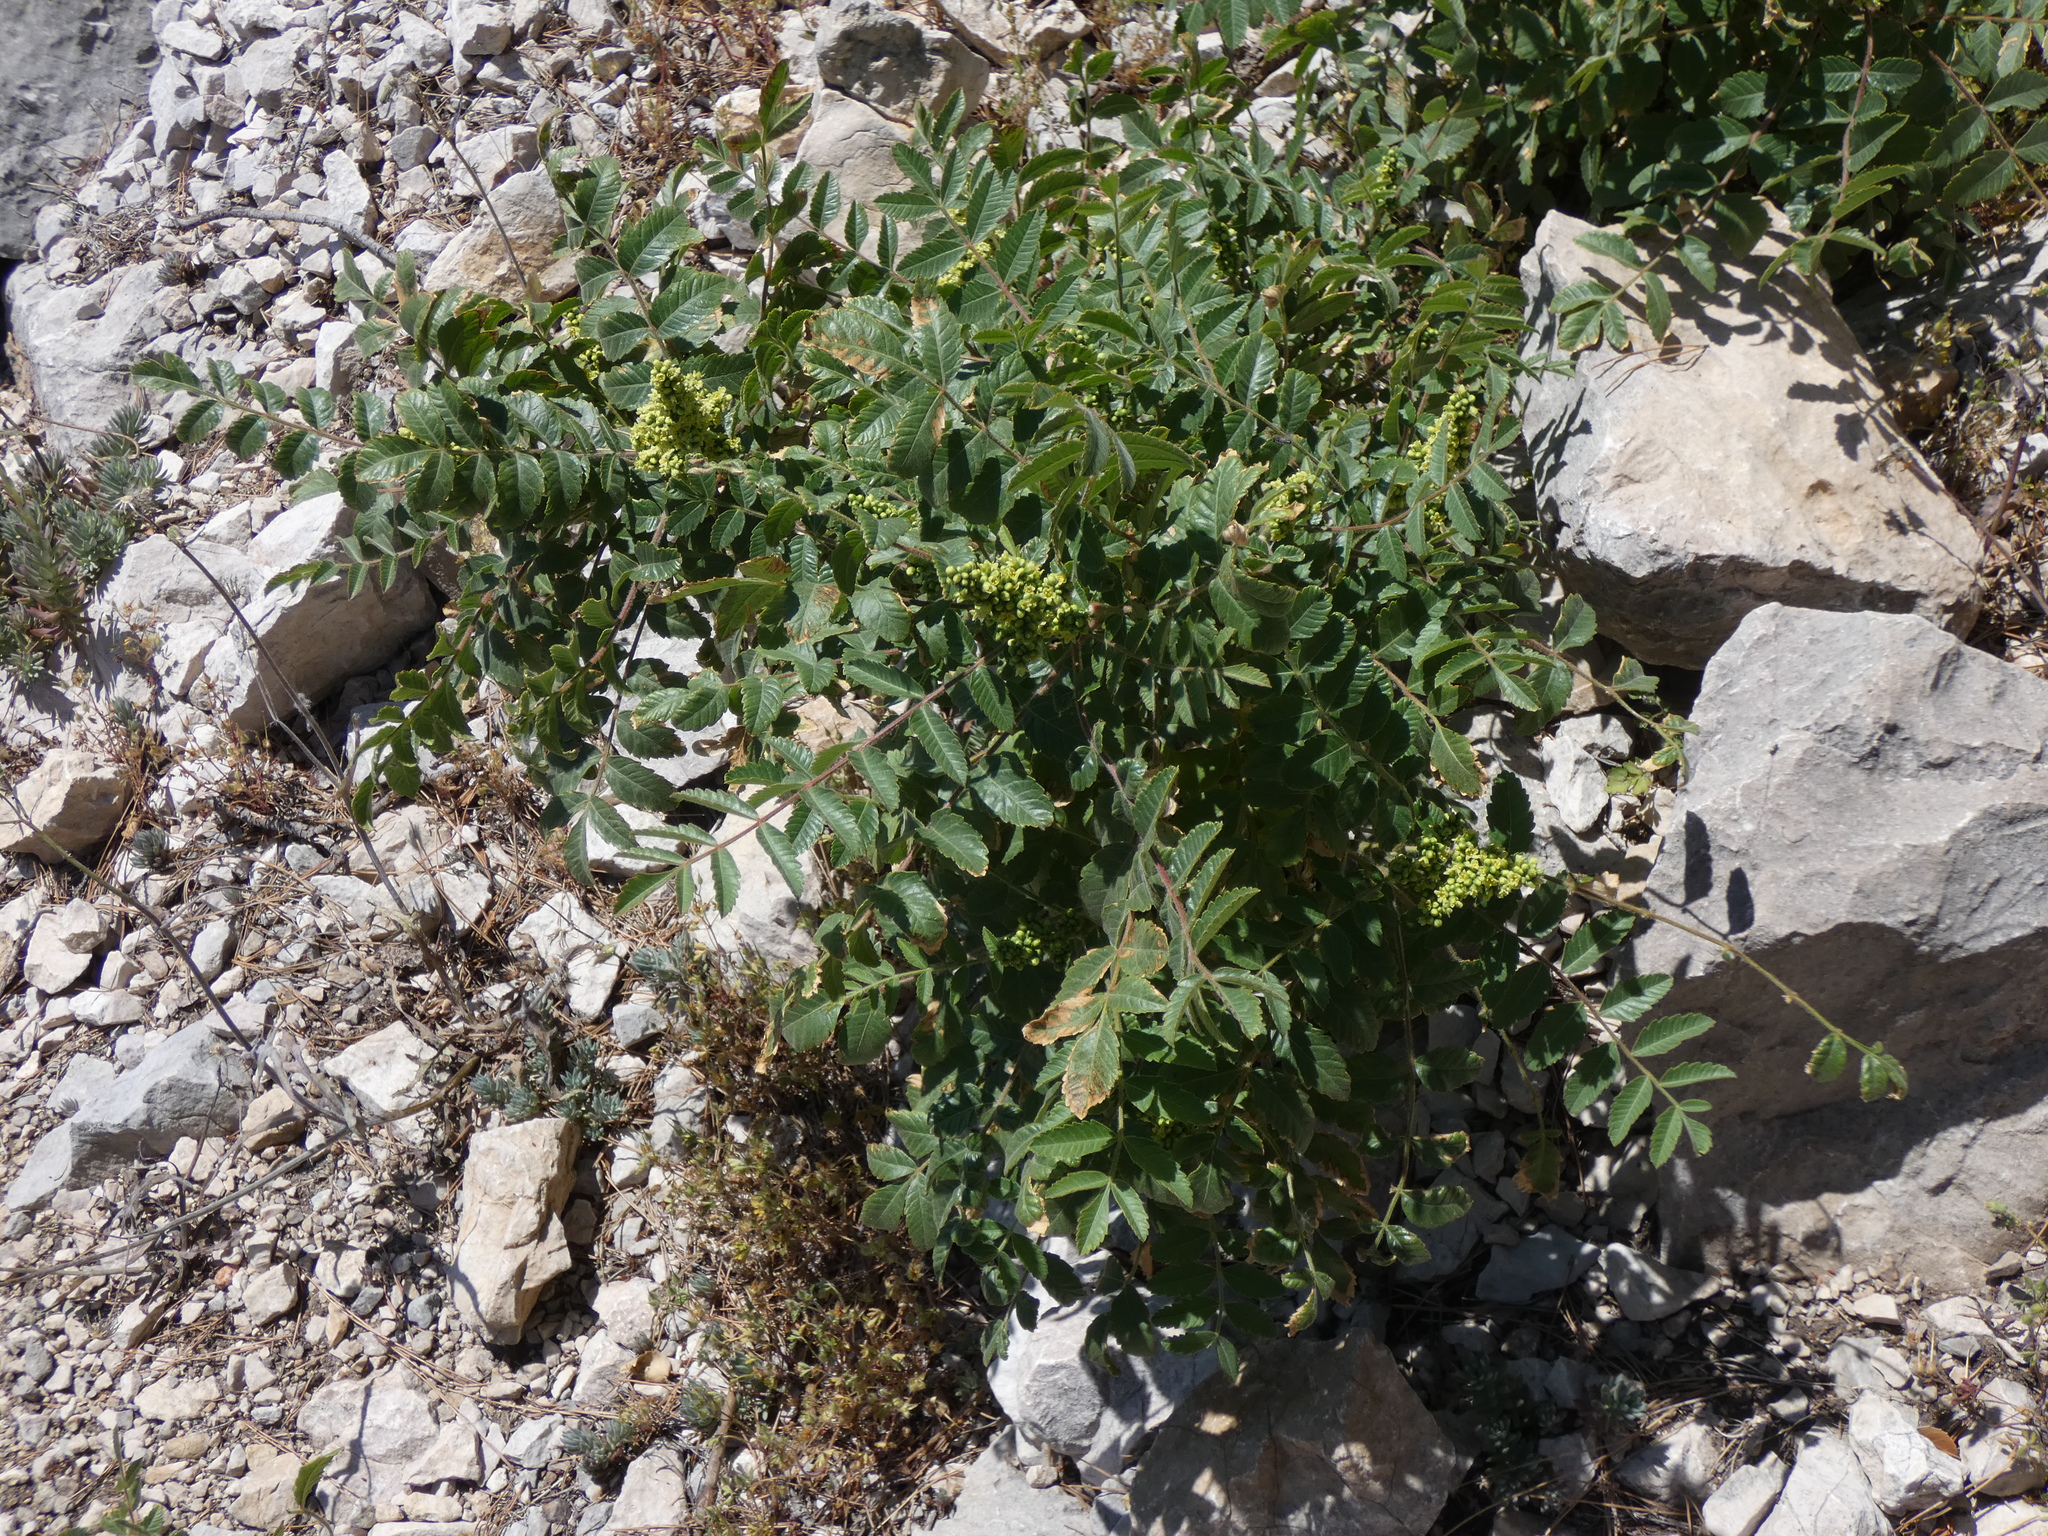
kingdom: Plantae
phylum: Tracheophyta
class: Magnoliopsida
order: Sapindales
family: Anacardiaceae
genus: Rhus
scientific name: Rhus coriaria
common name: Tanner's sumach
